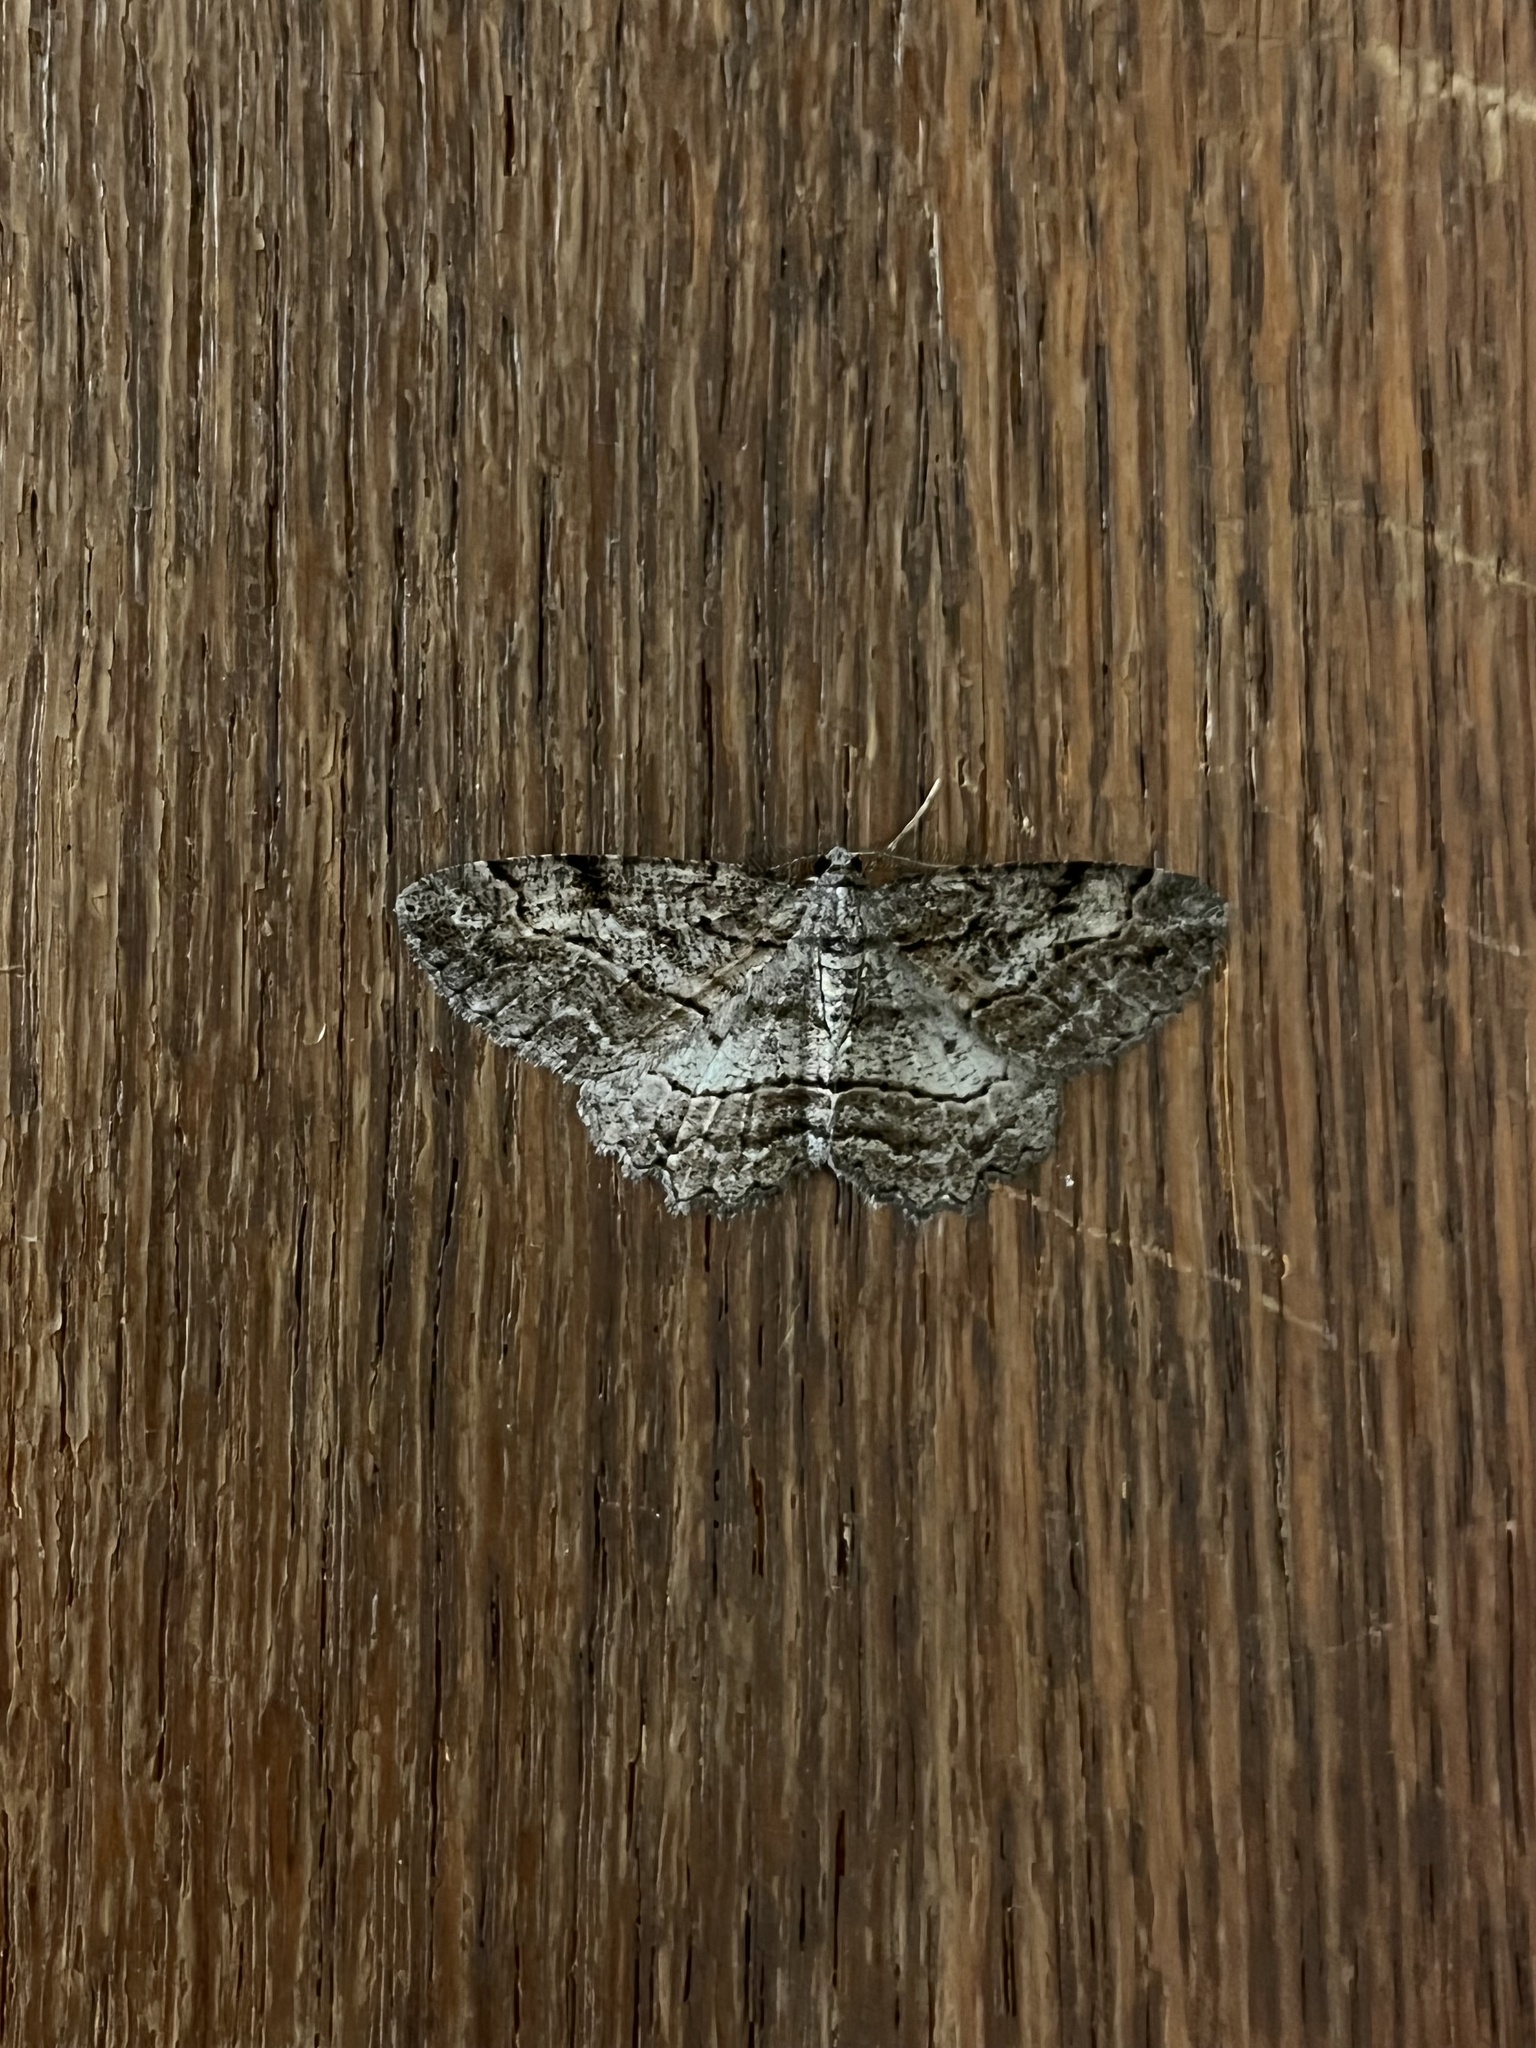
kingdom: Animalia
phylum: Arthropoda
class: Insecta
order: Lepidoptera
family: Geometridae
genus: Neoalcis
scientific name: Neoalcis californiaria
